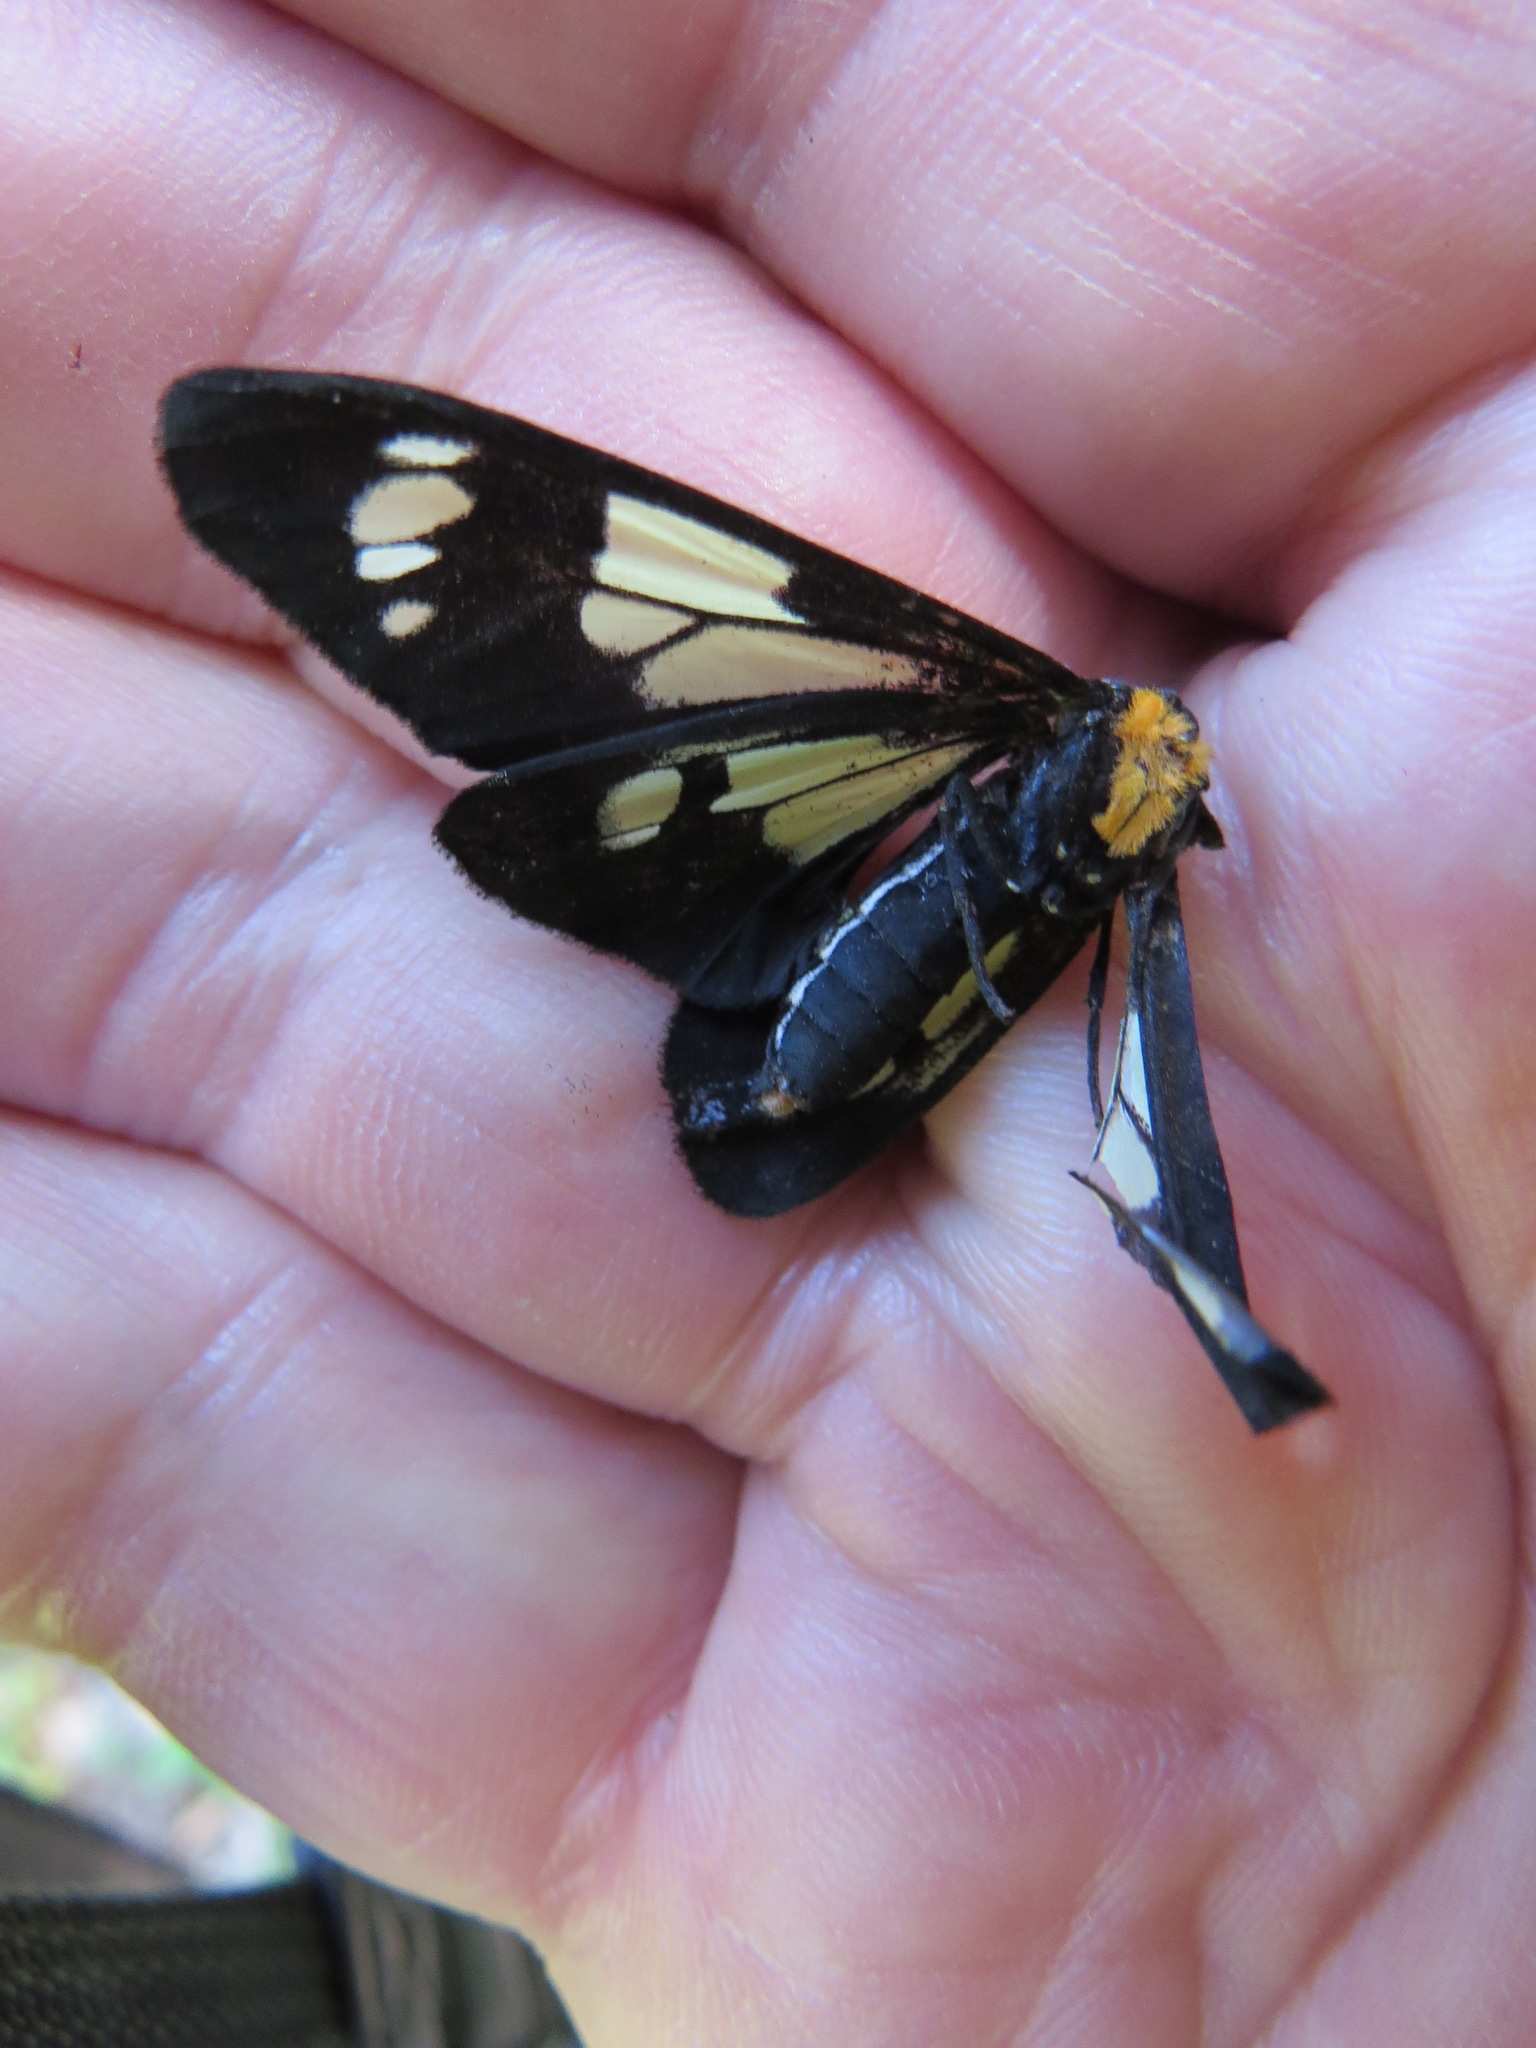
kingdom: Animalia
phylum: Arthropoda
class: Insecta
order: Lepidoptera
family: Erebidae
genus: Gnophaela
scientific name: Gnophaela latipennis
